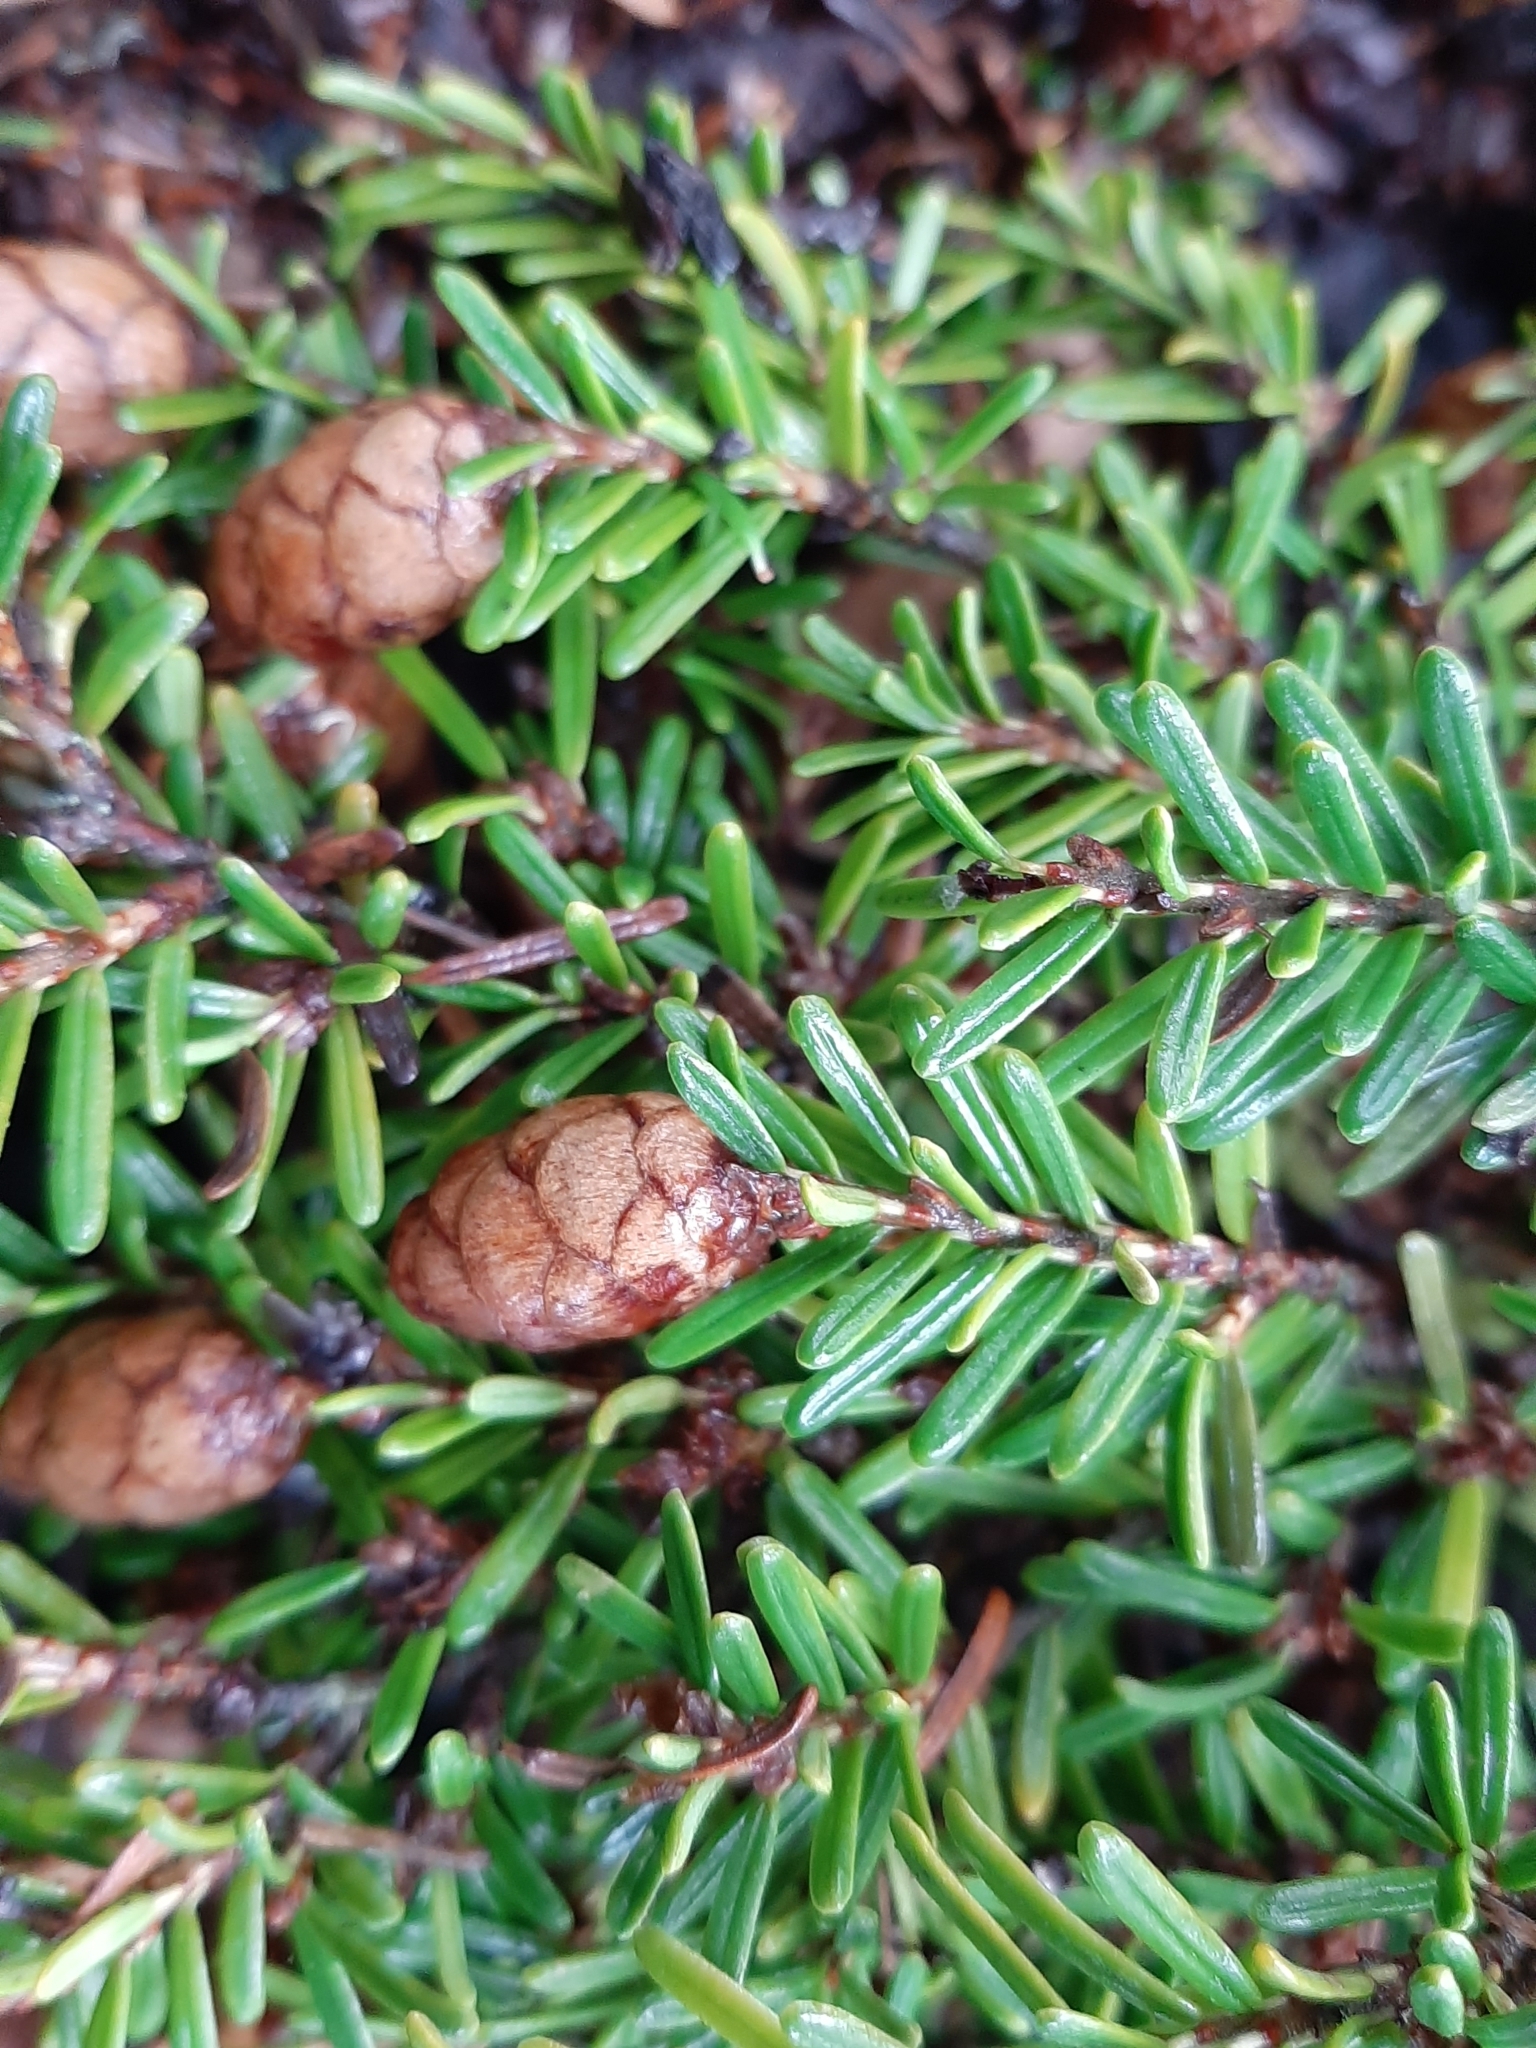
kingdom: Plantae
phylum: Tracheophyta
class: Pinopsida
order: Pinales
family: Pinaceae
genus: Tsuga
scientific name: Tsuga heterophylla
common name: Western hemlock
